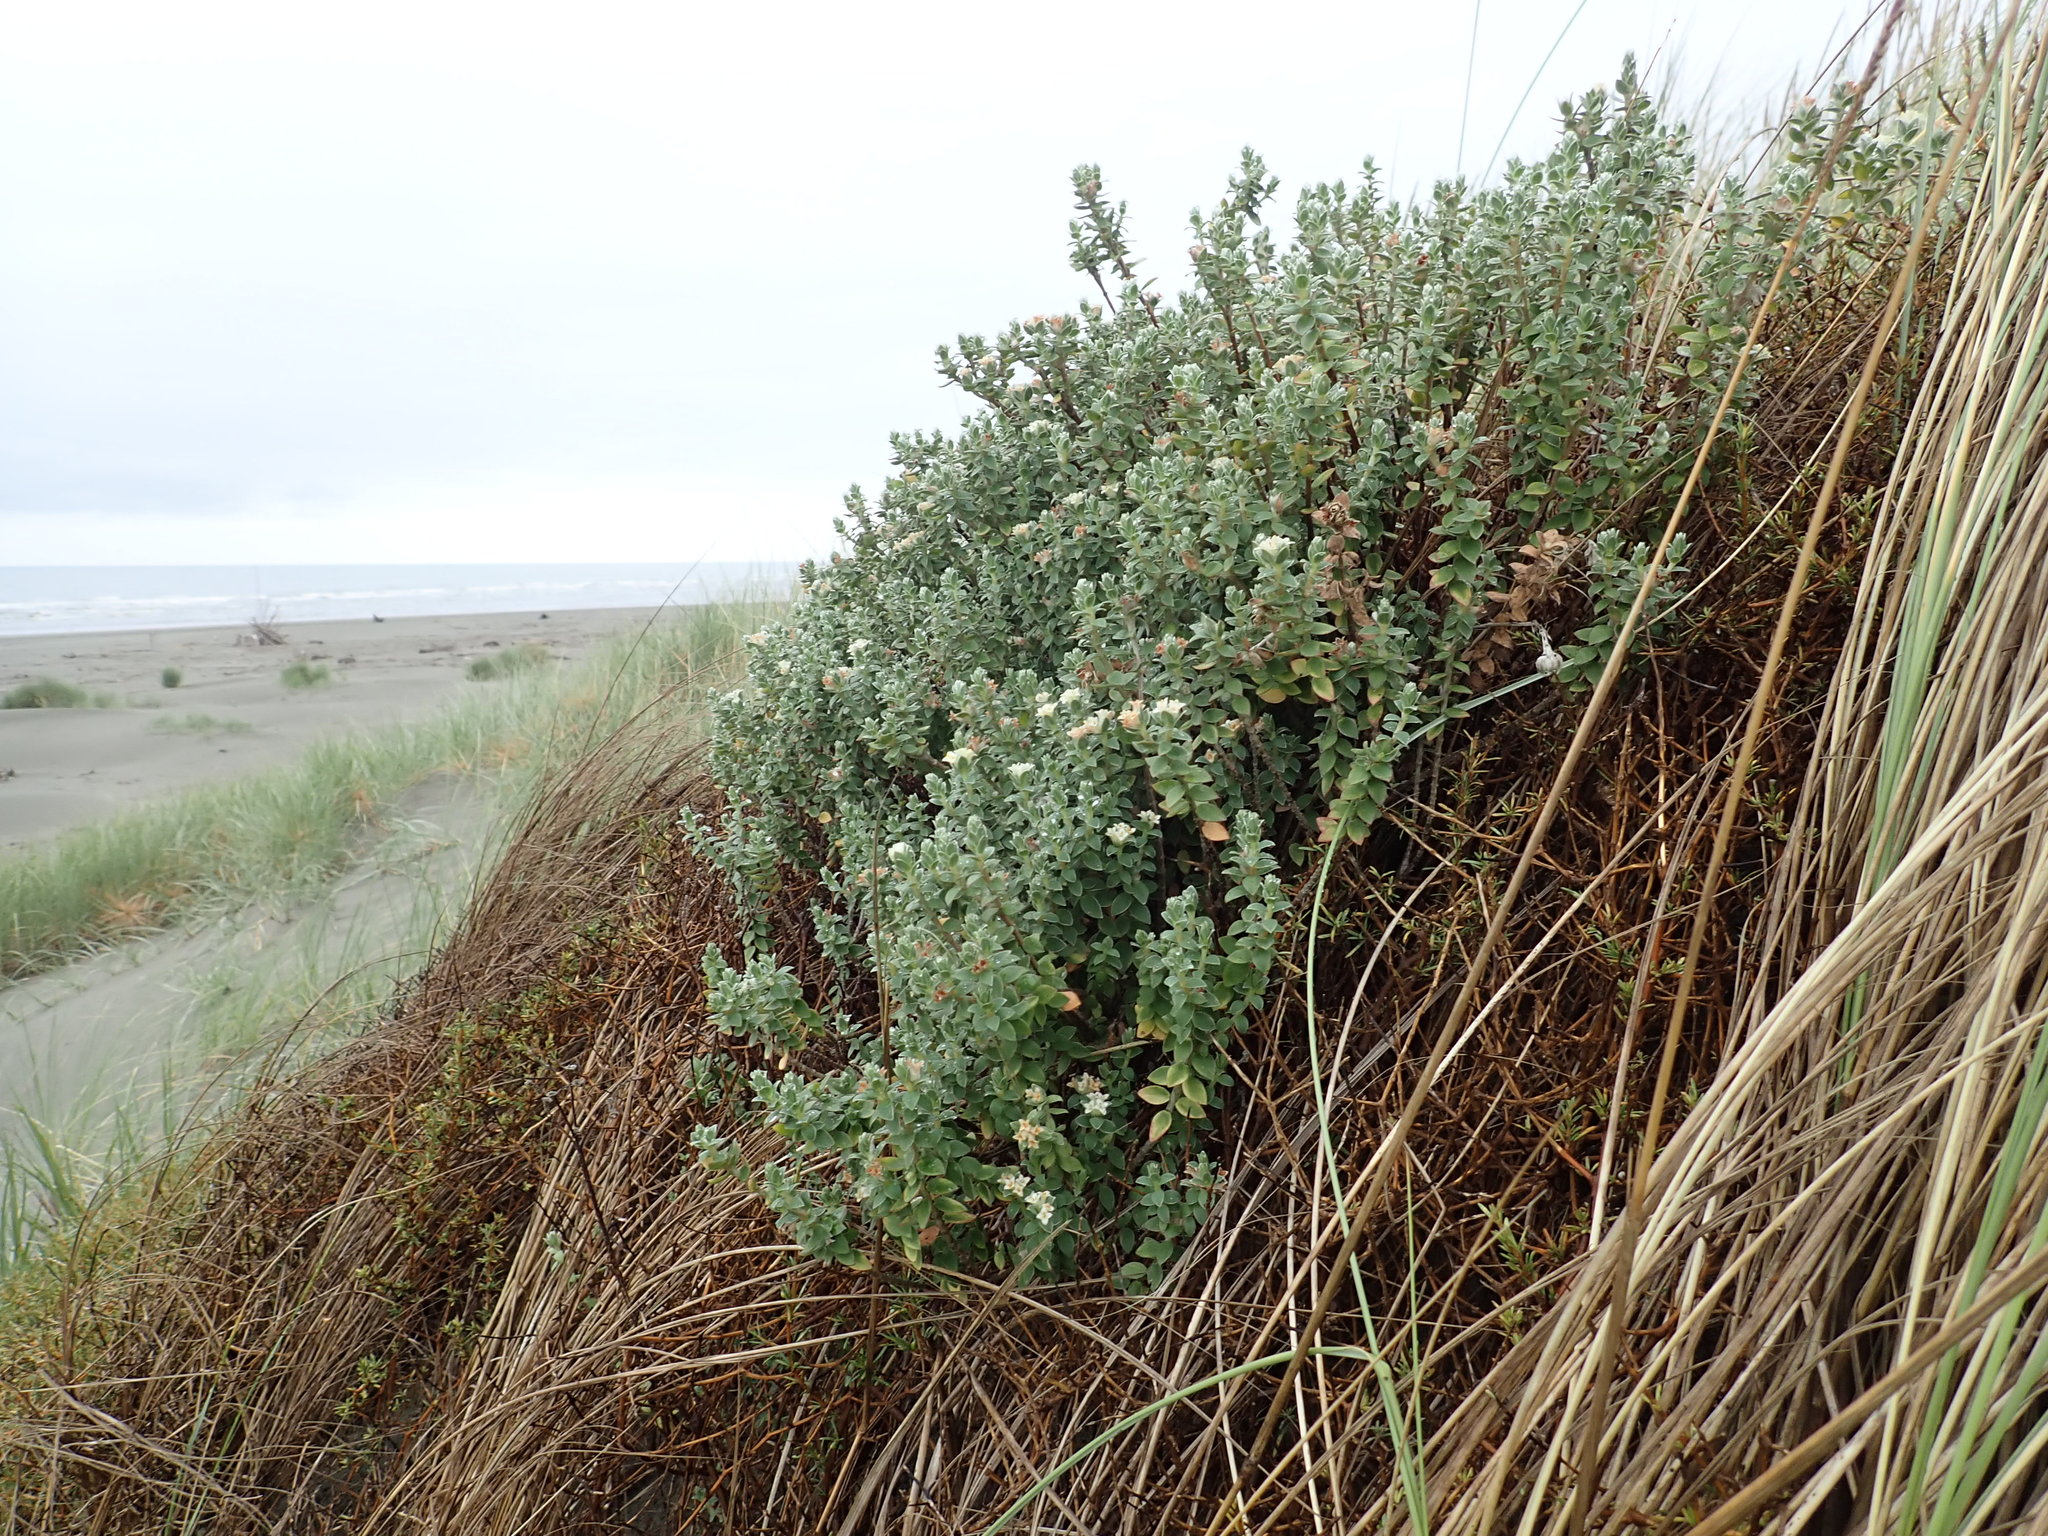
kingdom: Plantae
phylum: Tracheophyta
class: Magnoliopsida
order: Malvales
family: Thymelaeaceae
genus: Pimelea
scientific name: Pimelea villosa
